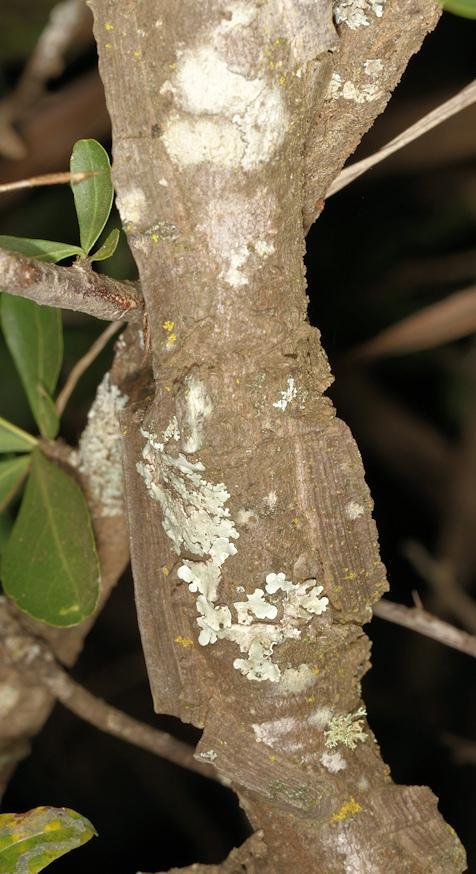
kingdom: Plantae
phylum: Tracheophyta
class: Magnoliopsida
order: Gentianales
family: Apocynaceae
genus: Secamone
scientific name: Secamone schweinfurthii
